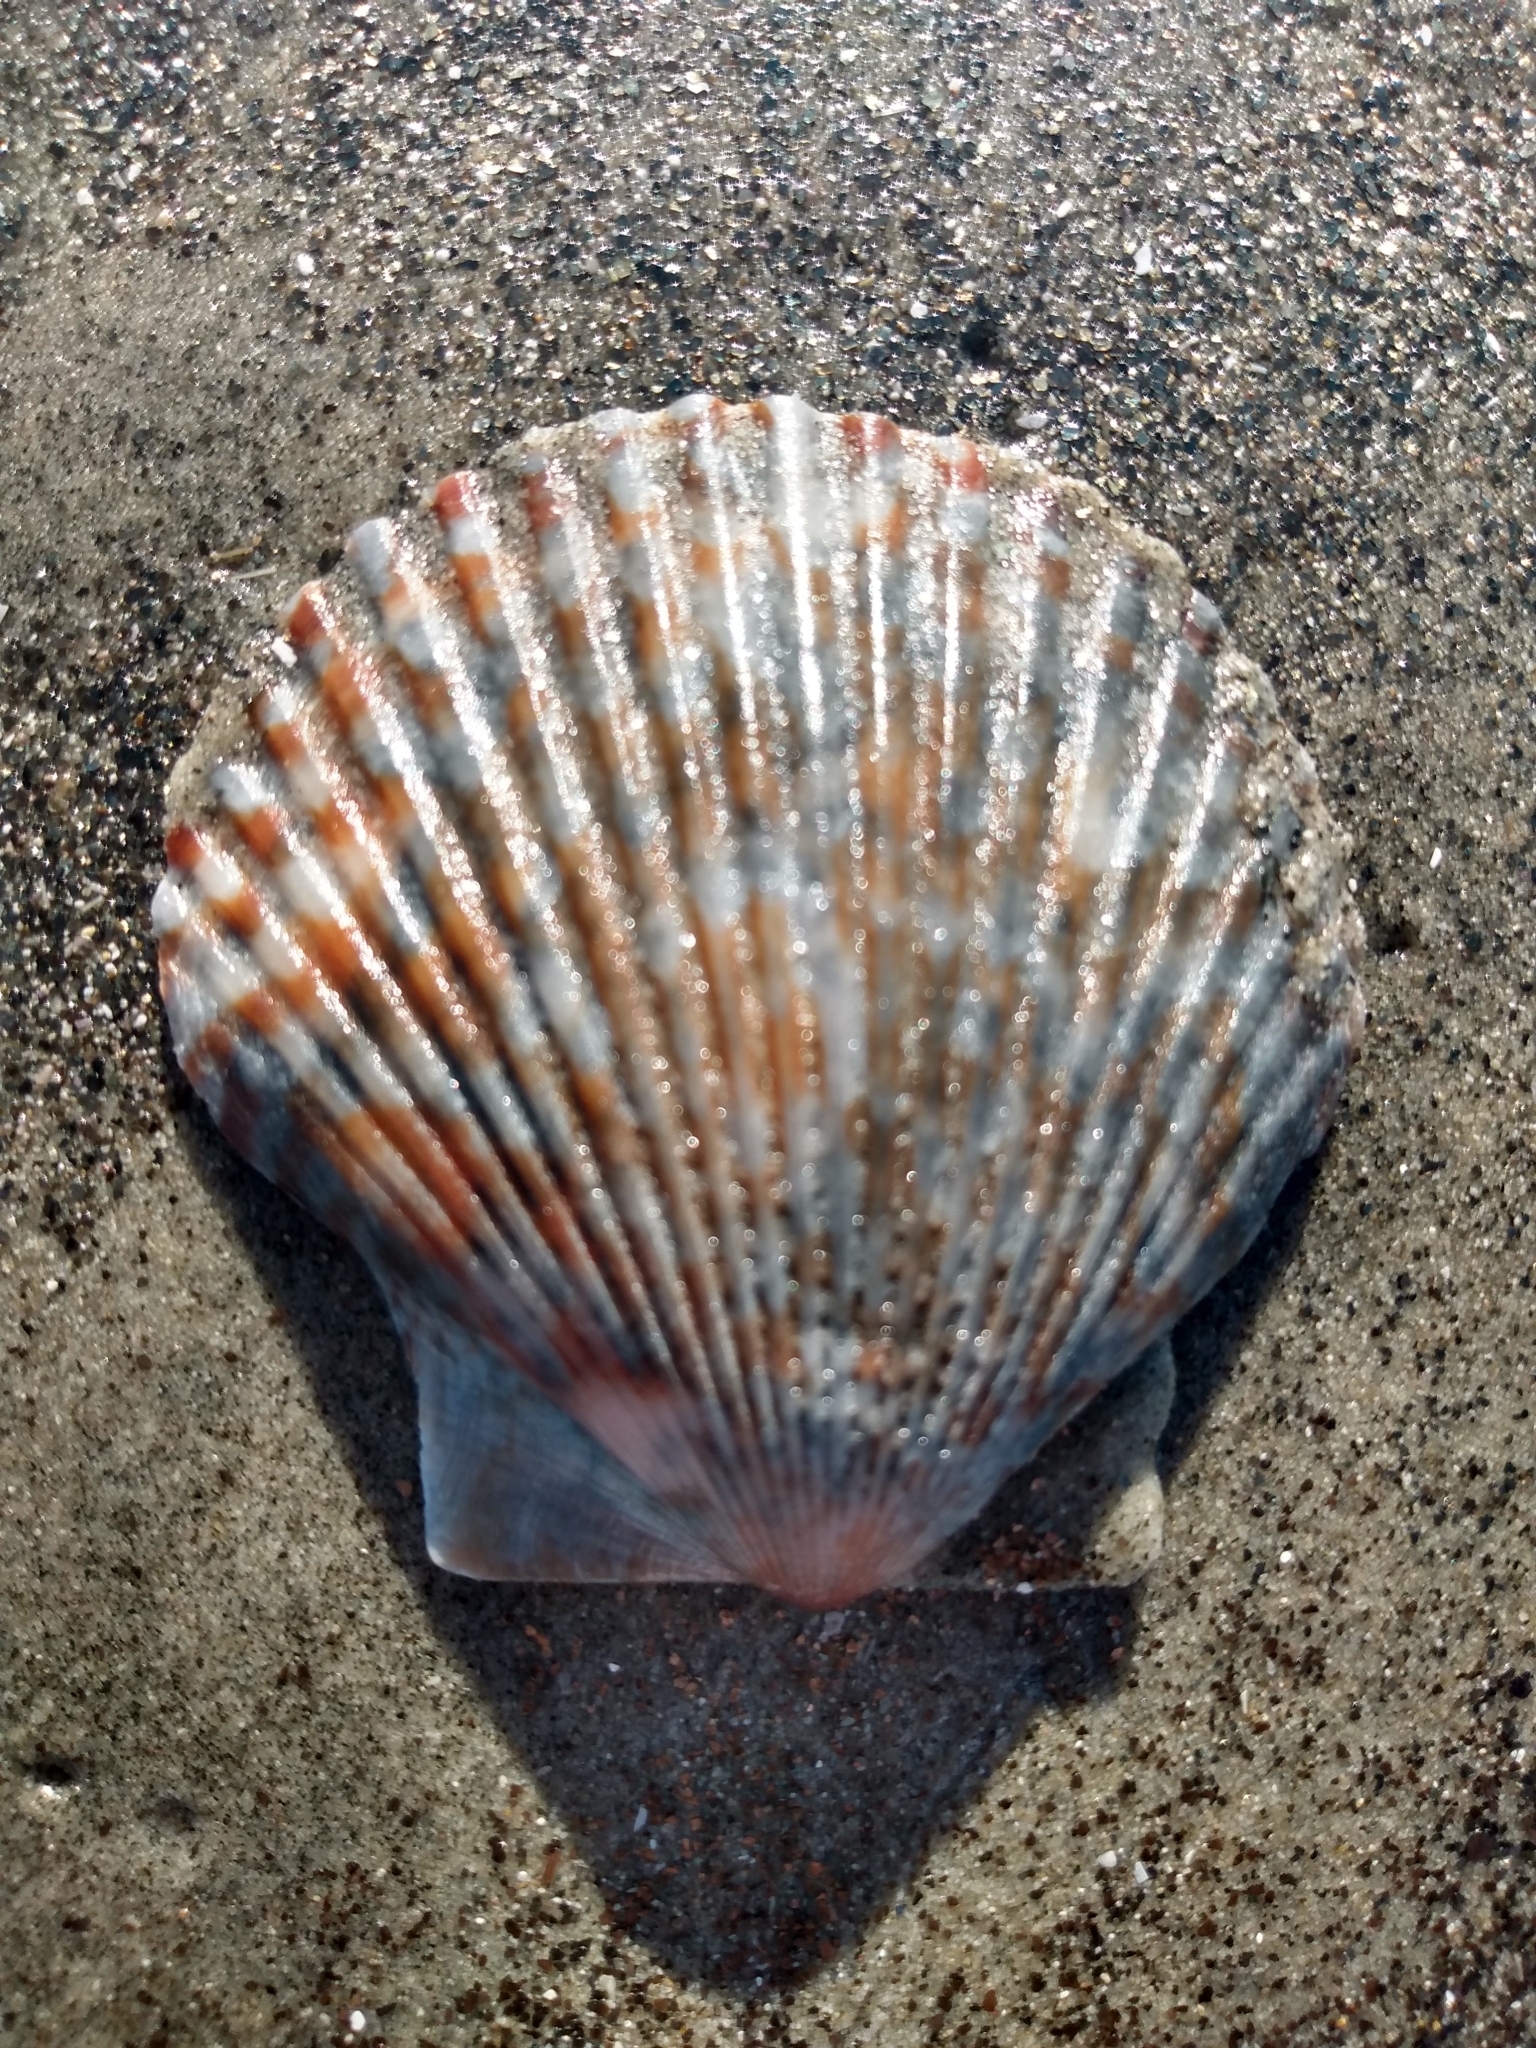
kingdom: Animalia
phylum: Mollusca
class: Bivalvia
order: Pectinida
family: Pectinidae
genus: Argopecten
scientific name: Argopecten ventricosus
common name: Catarina scallop
